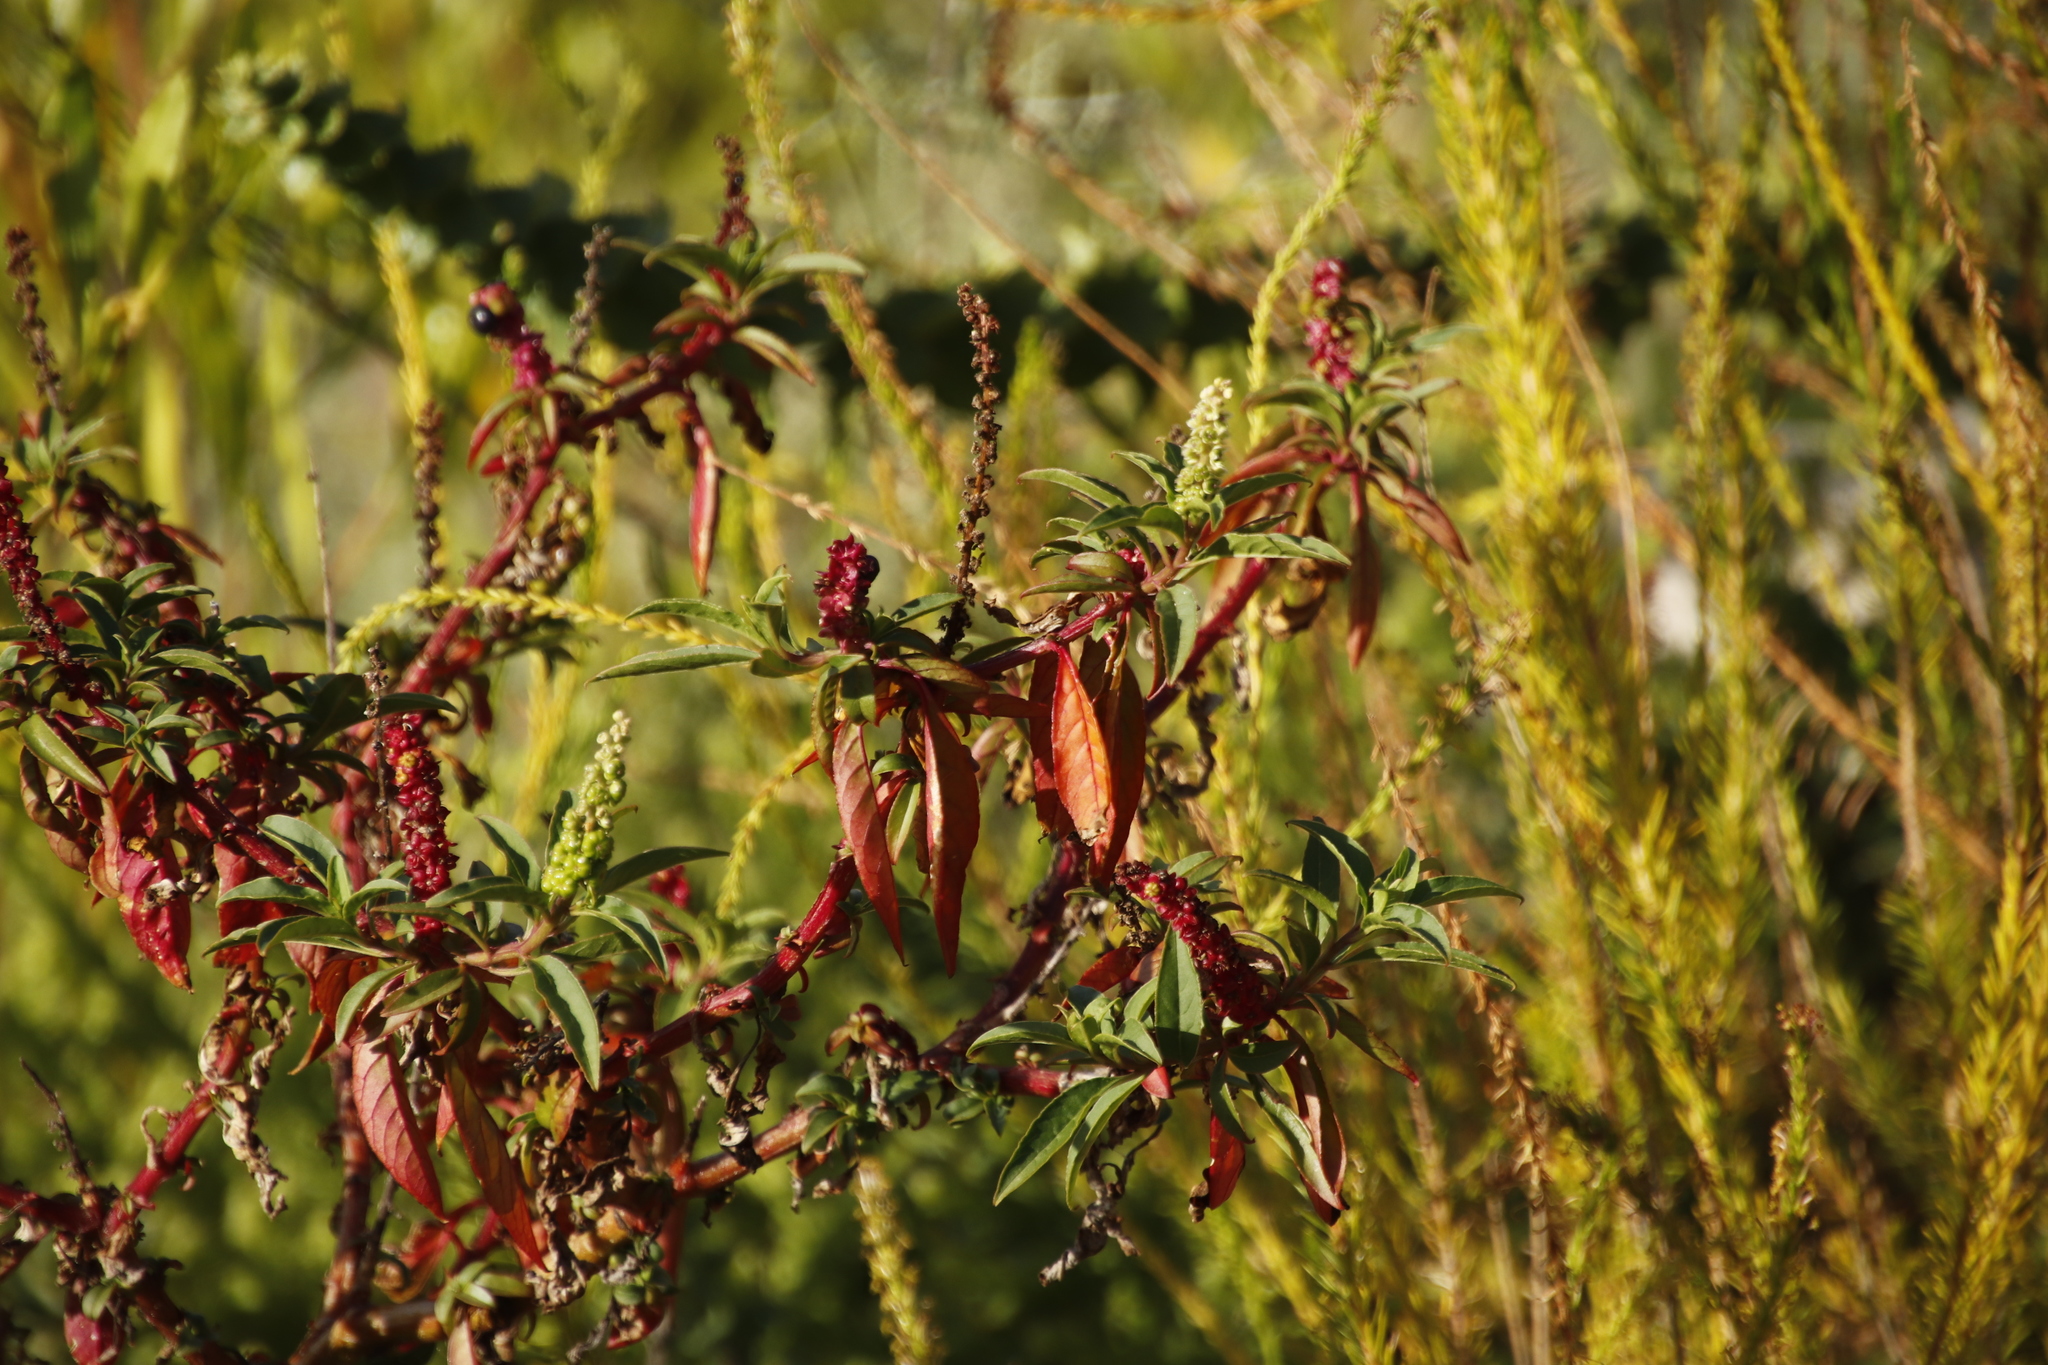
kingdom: Plantae
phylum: Tracheophyta
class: Magnoliopsida
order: Caryophyllales
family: Phytolaccaceae
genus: Phytolacca
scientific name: Phytolacca icosandra
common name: Button pokeweed
